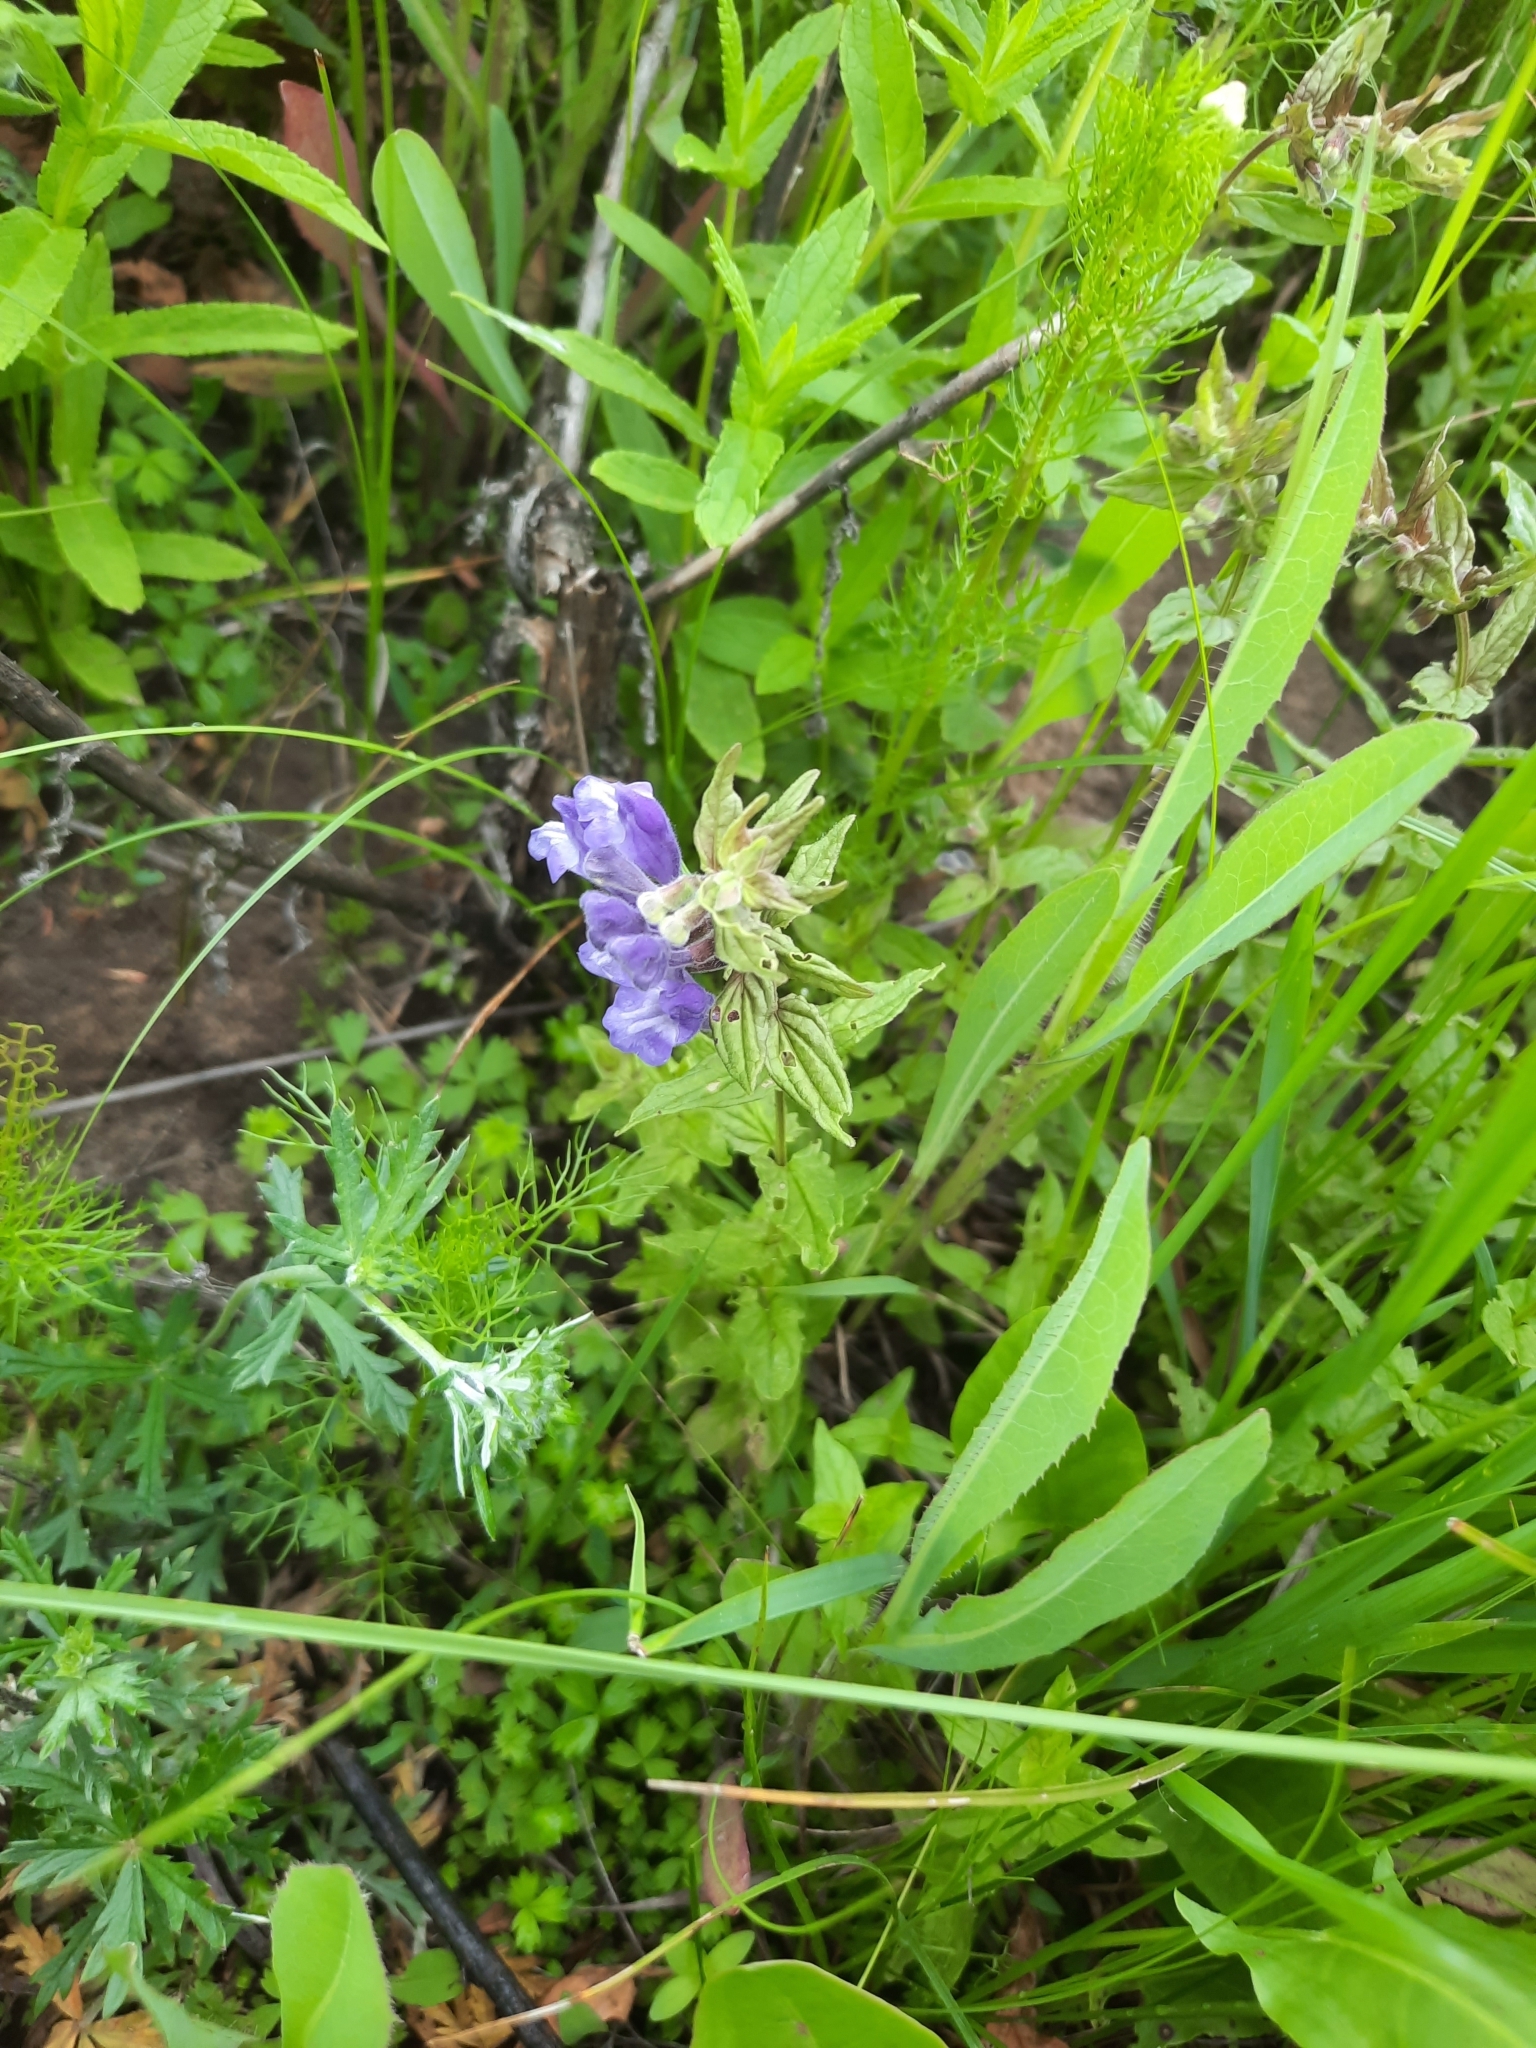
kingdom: Plantae
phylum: Tracheophyta
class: Magnoliopsida
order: Lamiales
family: Lamiaceae
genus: Scutellaria
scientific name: Scutellaria hastifolia
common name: Norfolk skullcap
